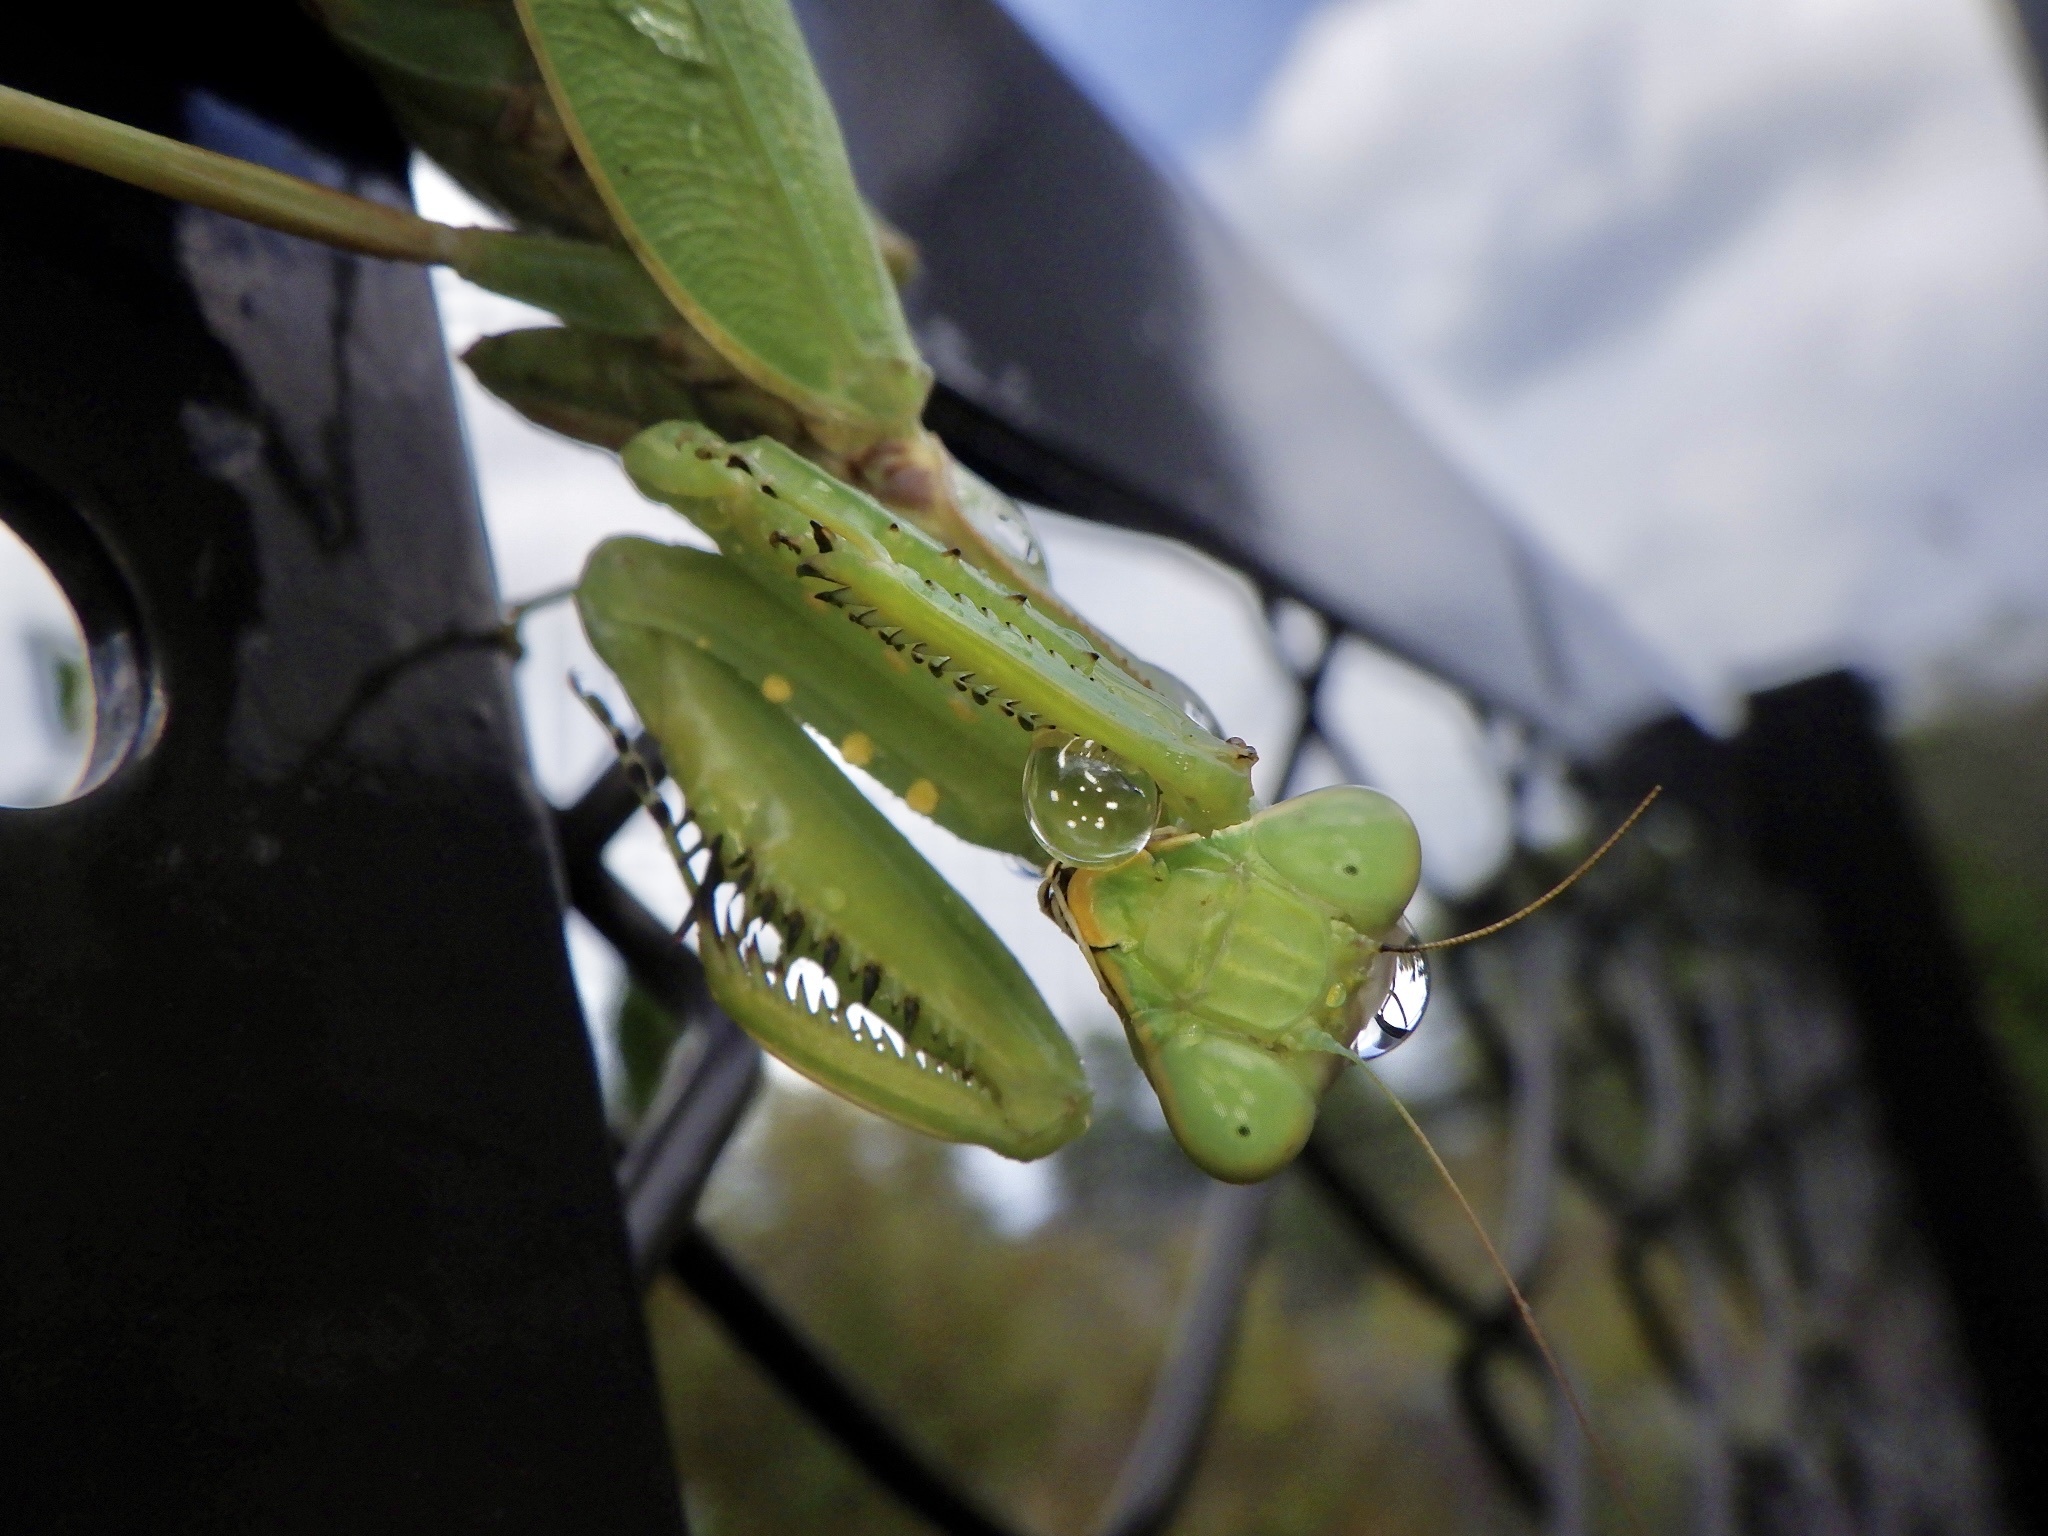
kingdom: Animalia
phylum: Arthropoda
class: Insecta
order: Mantodea
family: Mantidae
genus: Hierodula
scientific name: Hierodula patellifera
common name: Asian mantis
